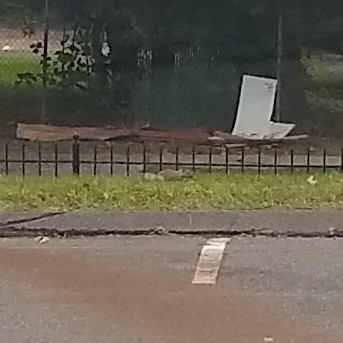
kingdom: Animalia
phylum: Chordata
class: Mammalia
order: Rodentia
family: Sciuridae
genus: Sciurus
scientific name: Sciurus carolinensis
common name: Eastern gray squirrel
